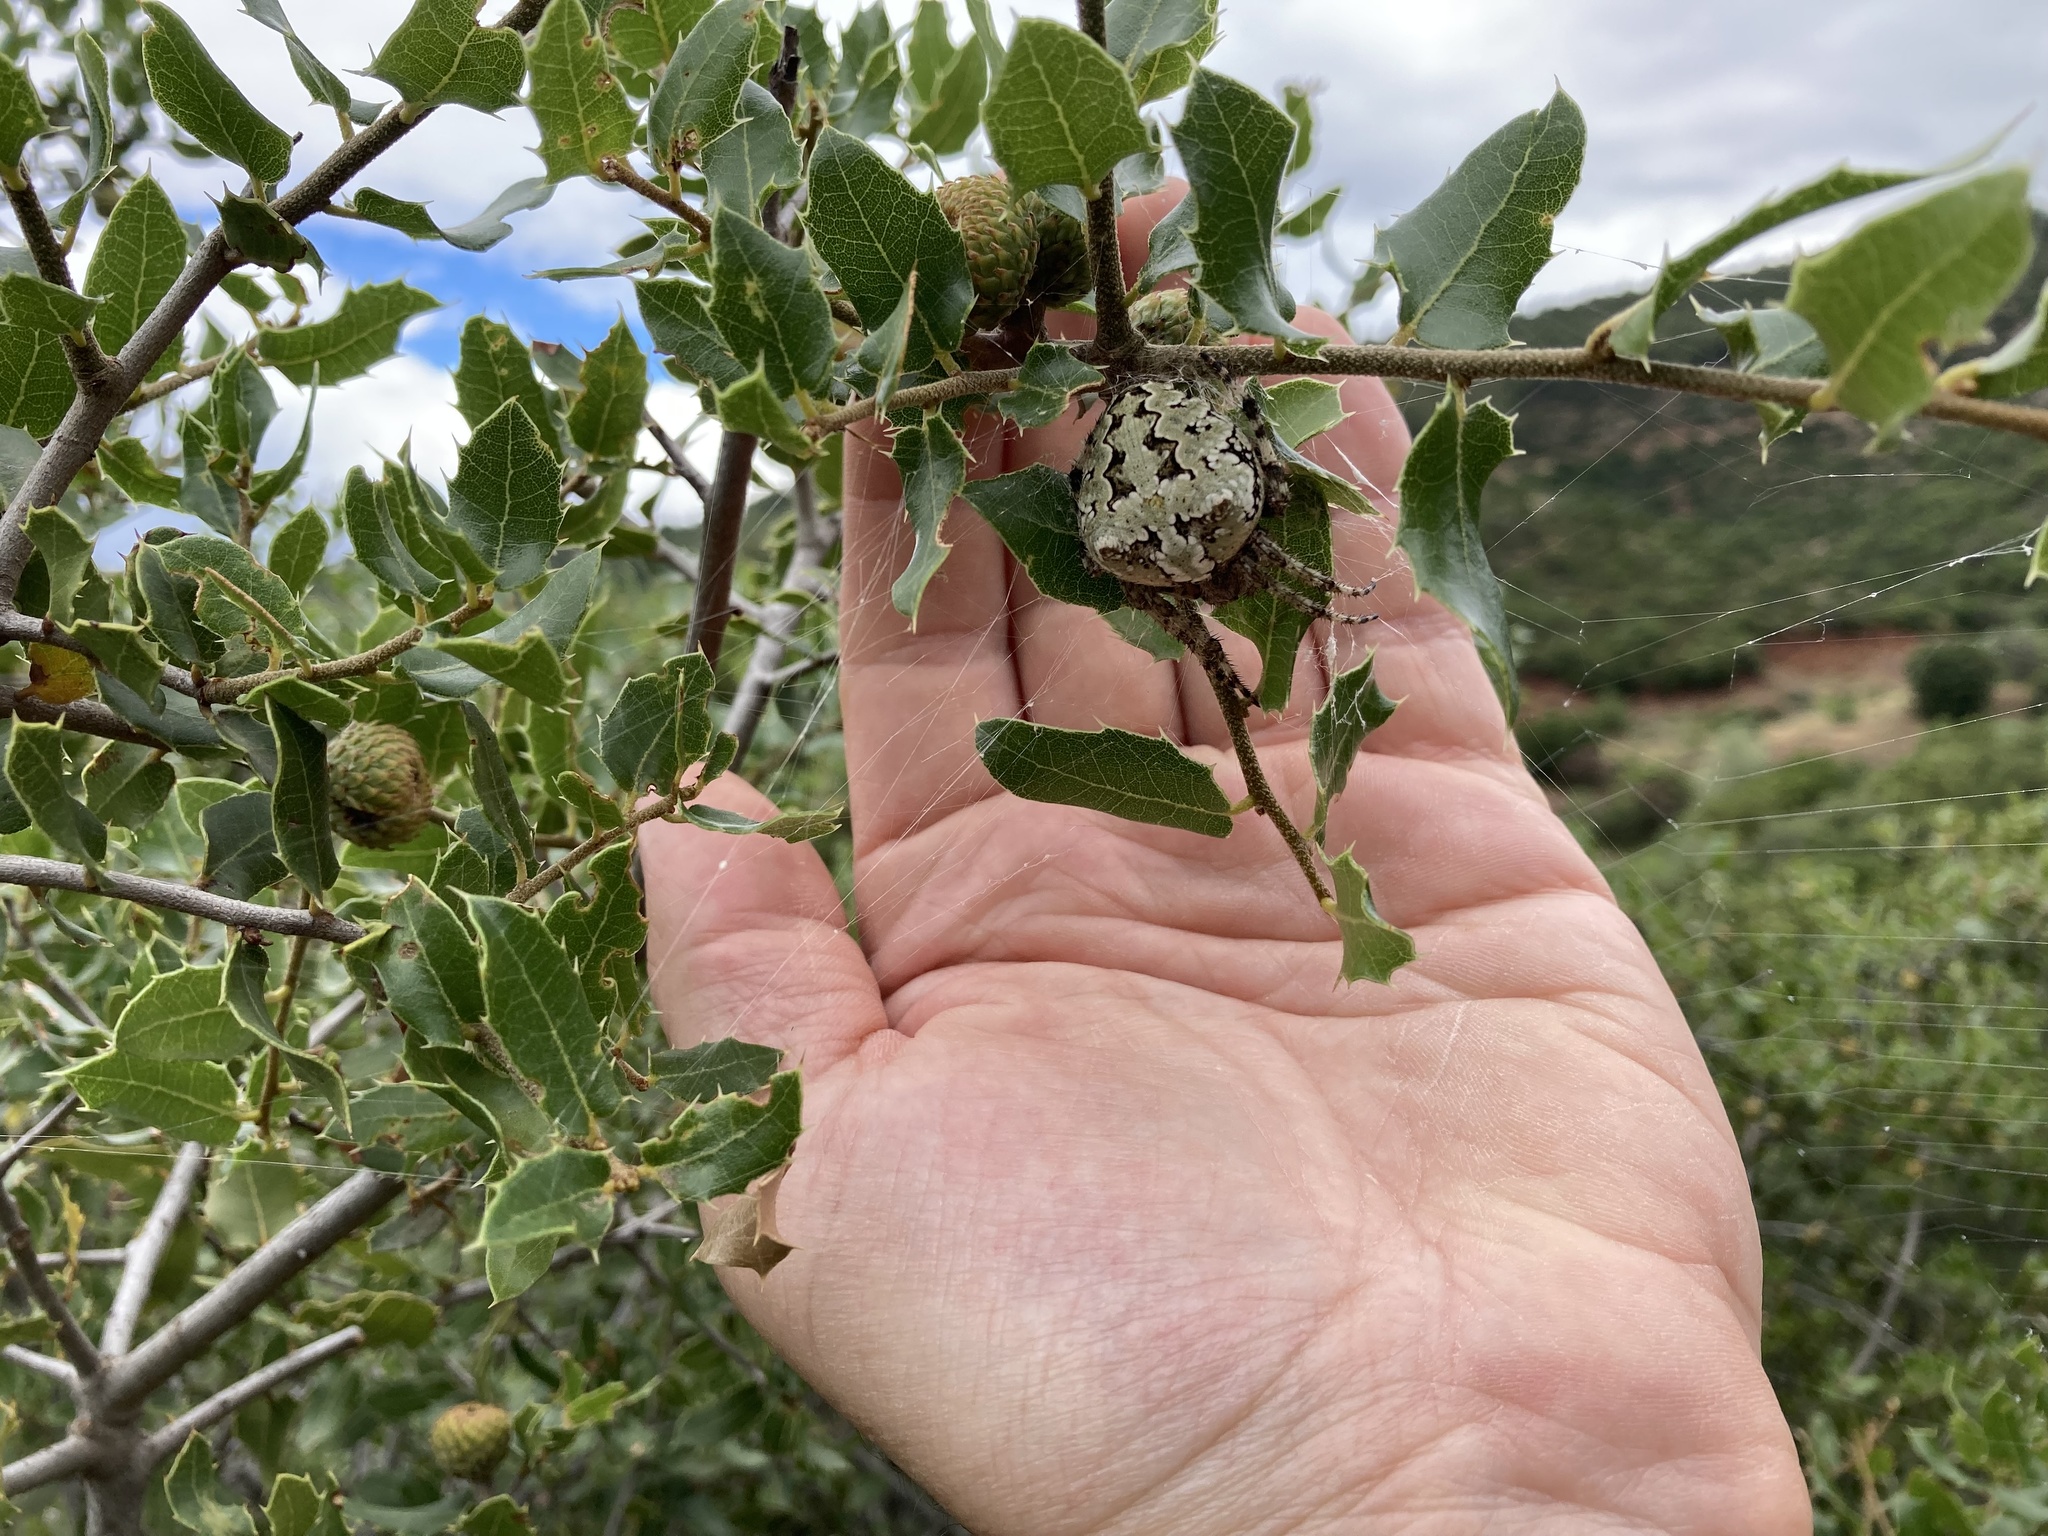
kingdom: Animalia
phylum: Arthropoda
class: Arachnida
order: Araneae
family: Araneidae
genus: Araneus
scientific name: Araneus circe
